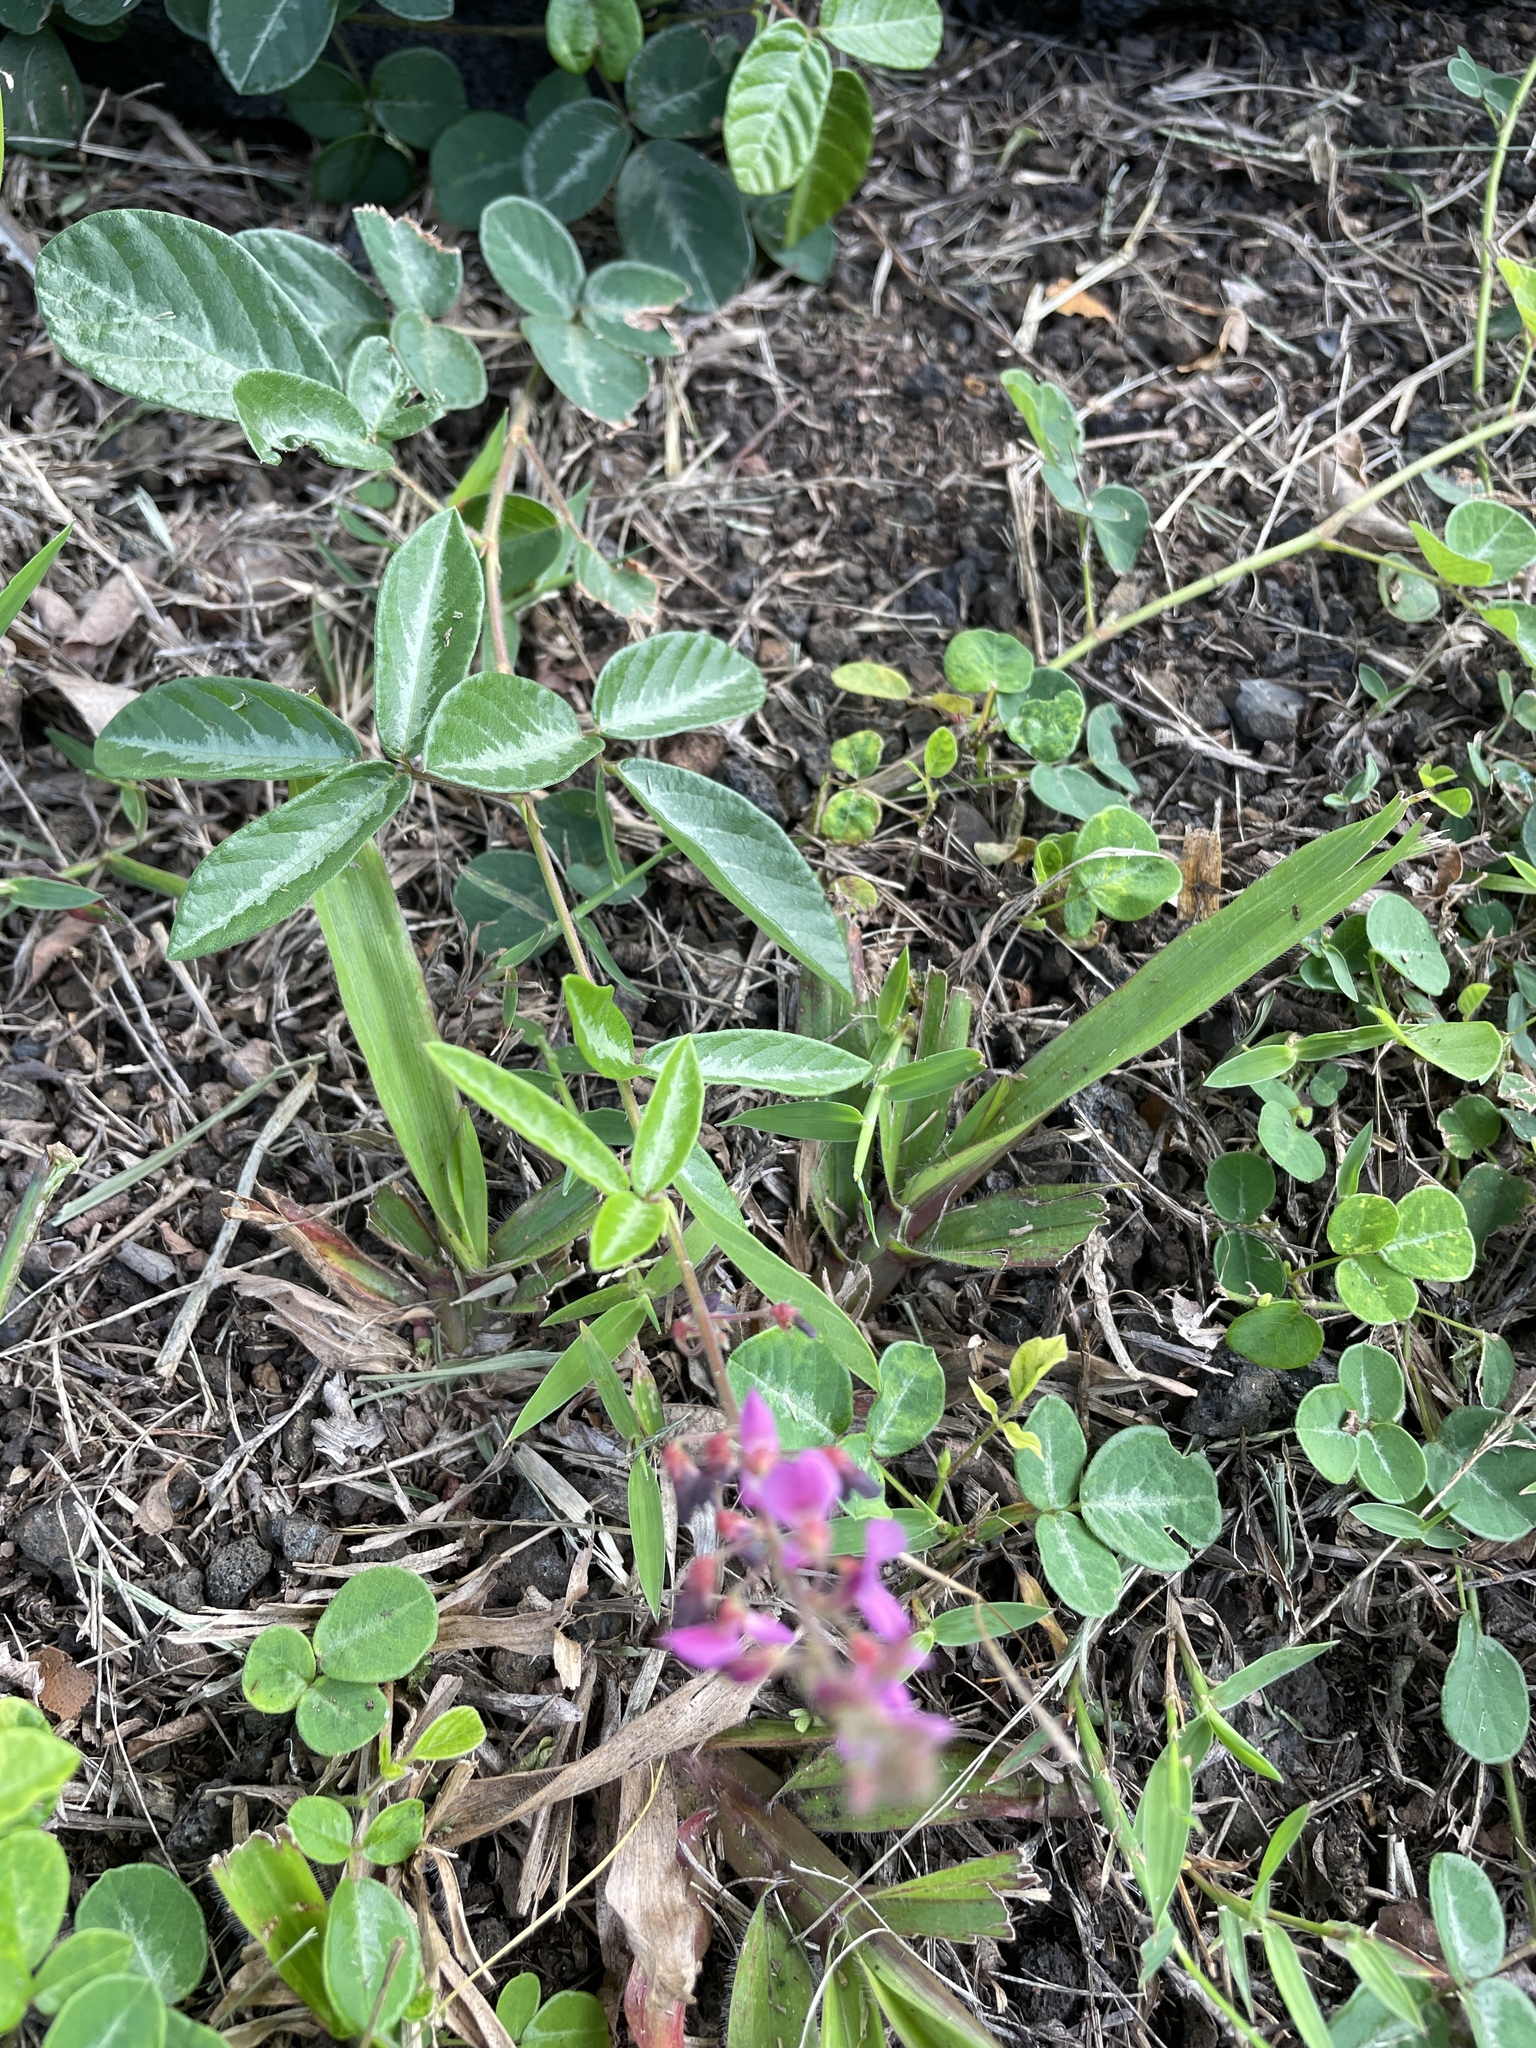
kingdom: Plantae
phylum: Tracheophyta
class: Magnoliopsida
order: Fabales
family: Fabaceae
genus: Desmodium
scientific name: Desmodium incanum
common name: Tickclover
